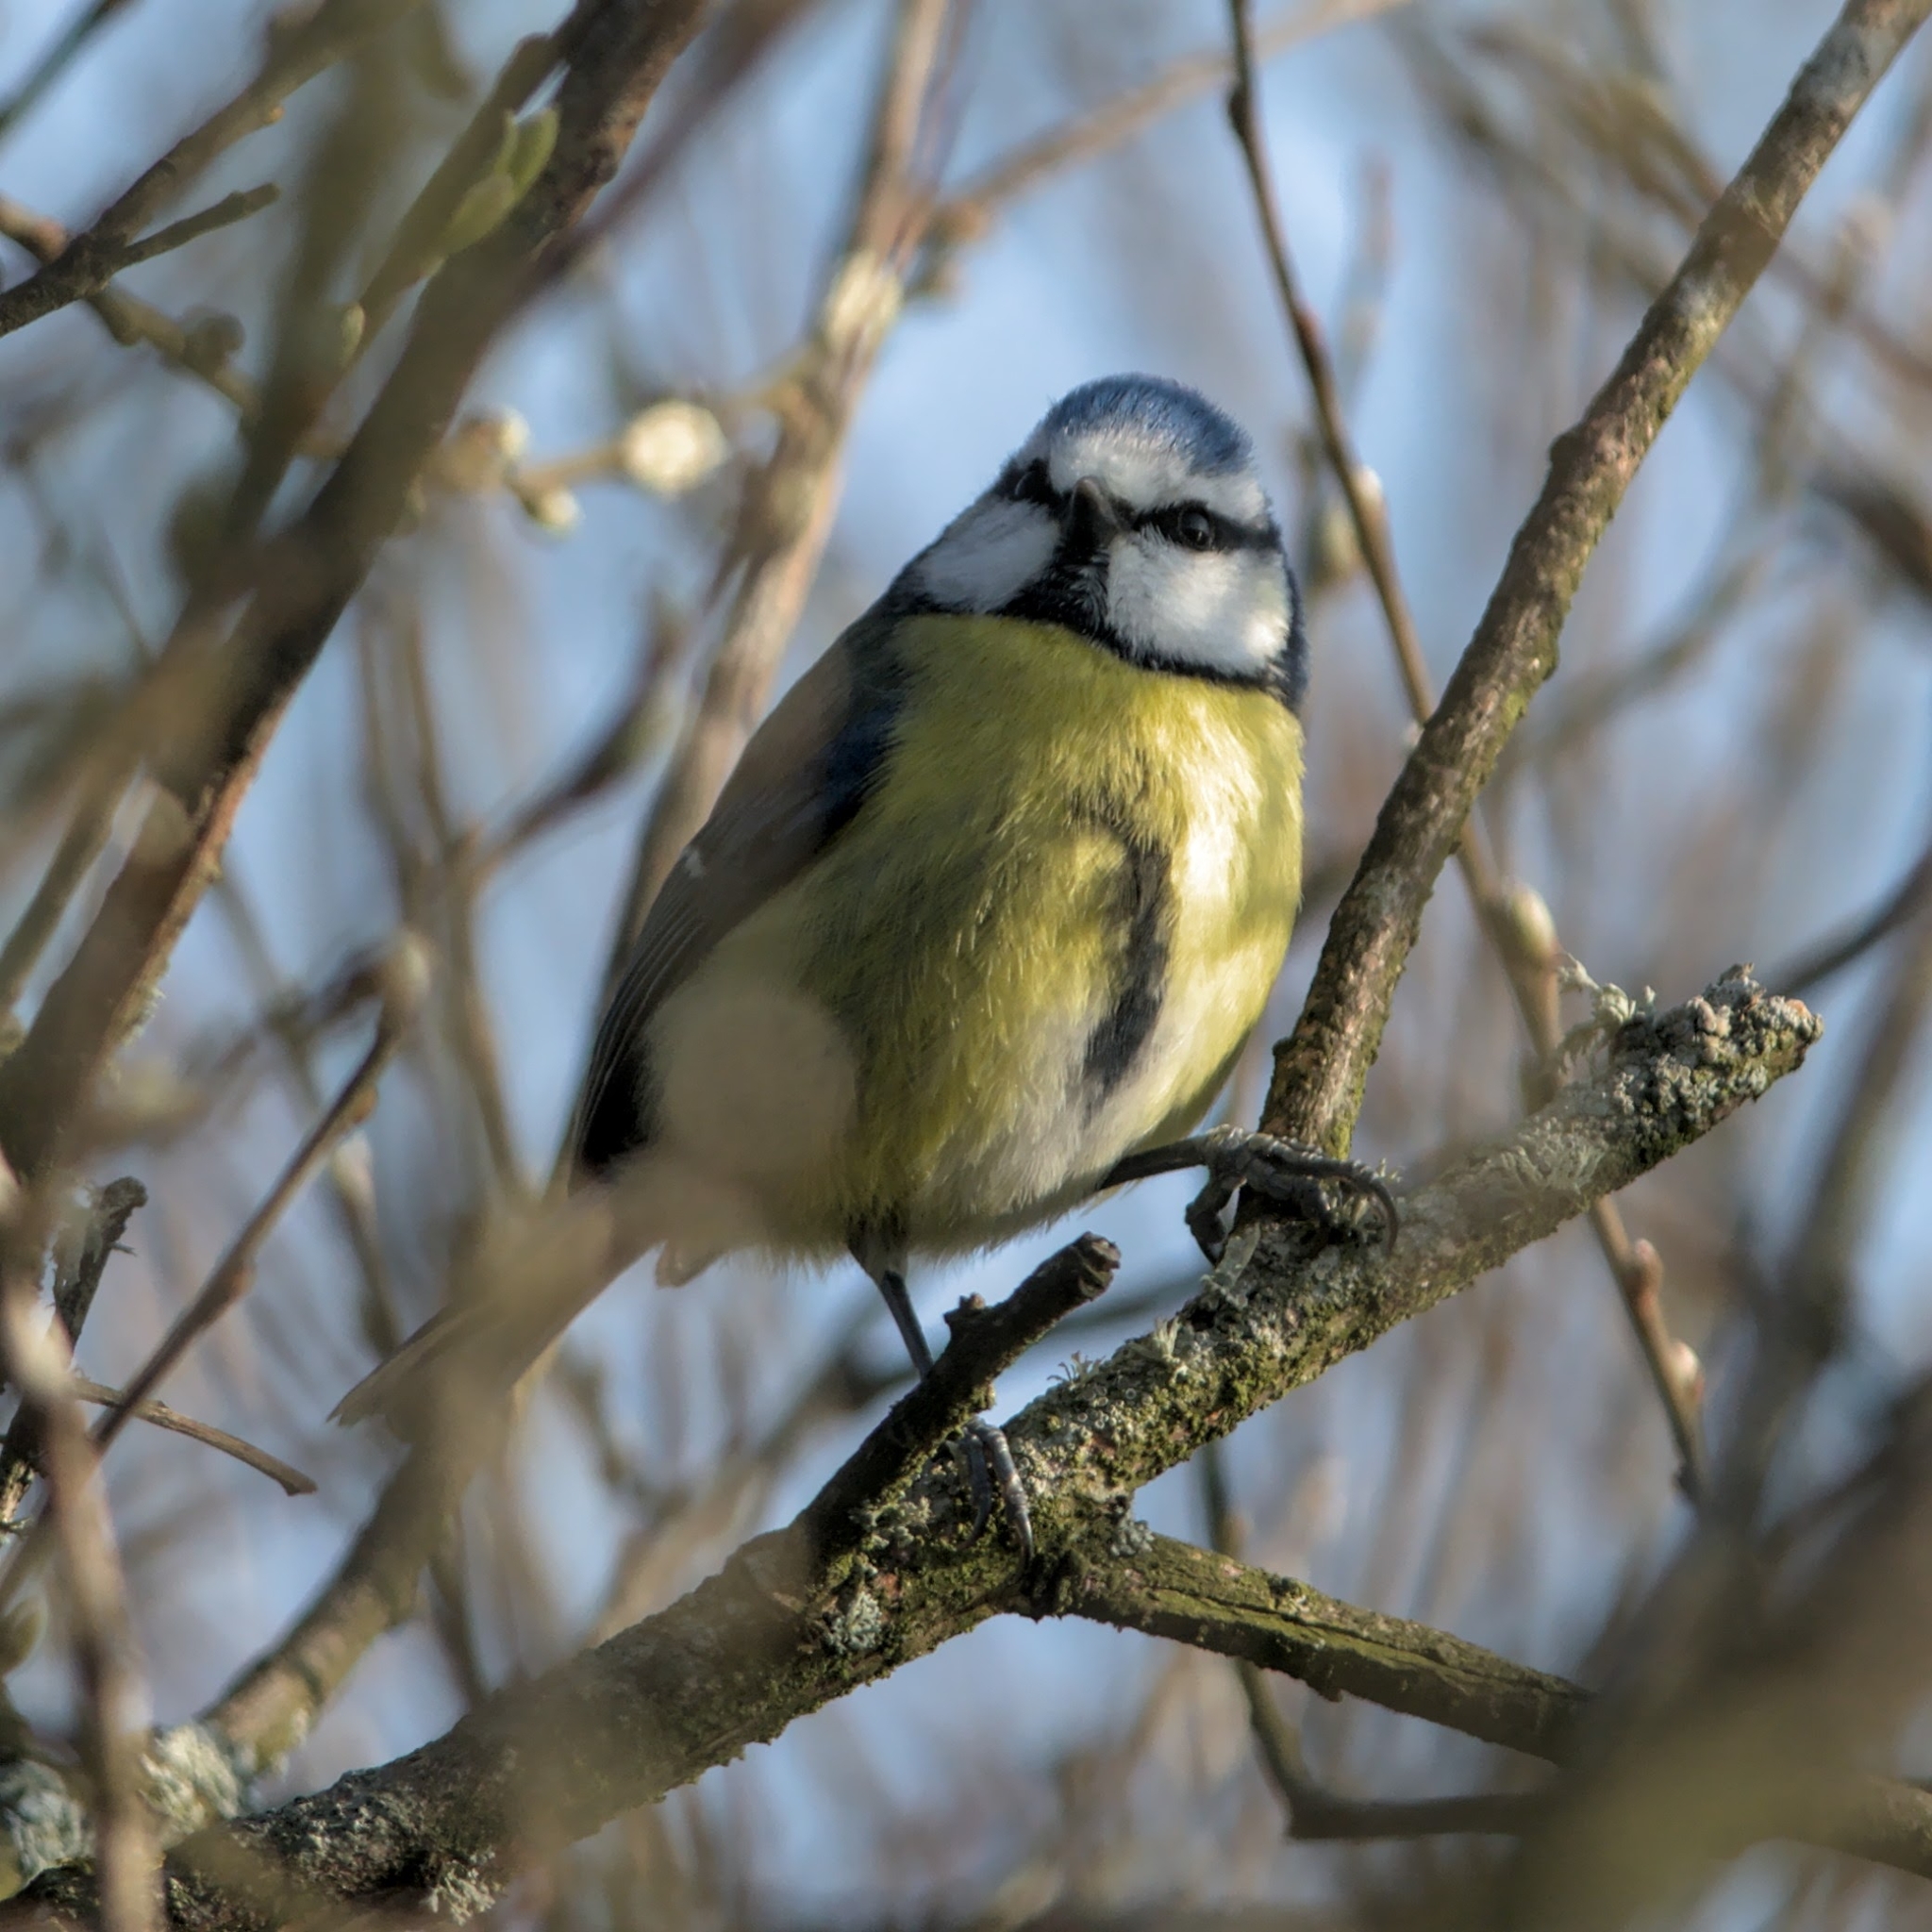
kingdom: Animalia
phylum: Chordata
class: Aves
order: Passeriformes
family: Paridae
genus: Cyanistes
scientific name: Cyanistes caeruleus
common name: Eurasian blue tit
